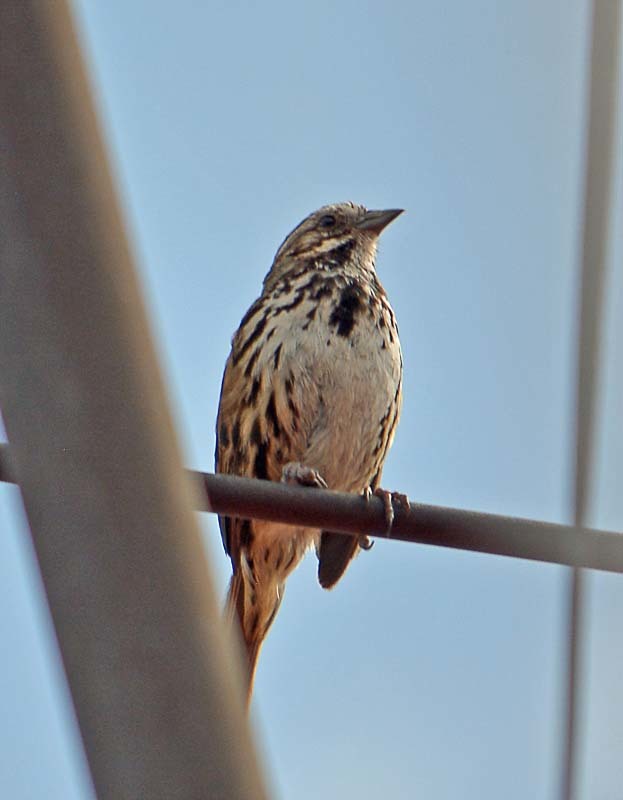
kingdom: Animalia
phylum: Chordata
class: Aves
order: Passeriformes
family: Passerellidae
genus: Melospiza
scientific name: Melospiza melodia
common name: Song sparrow
